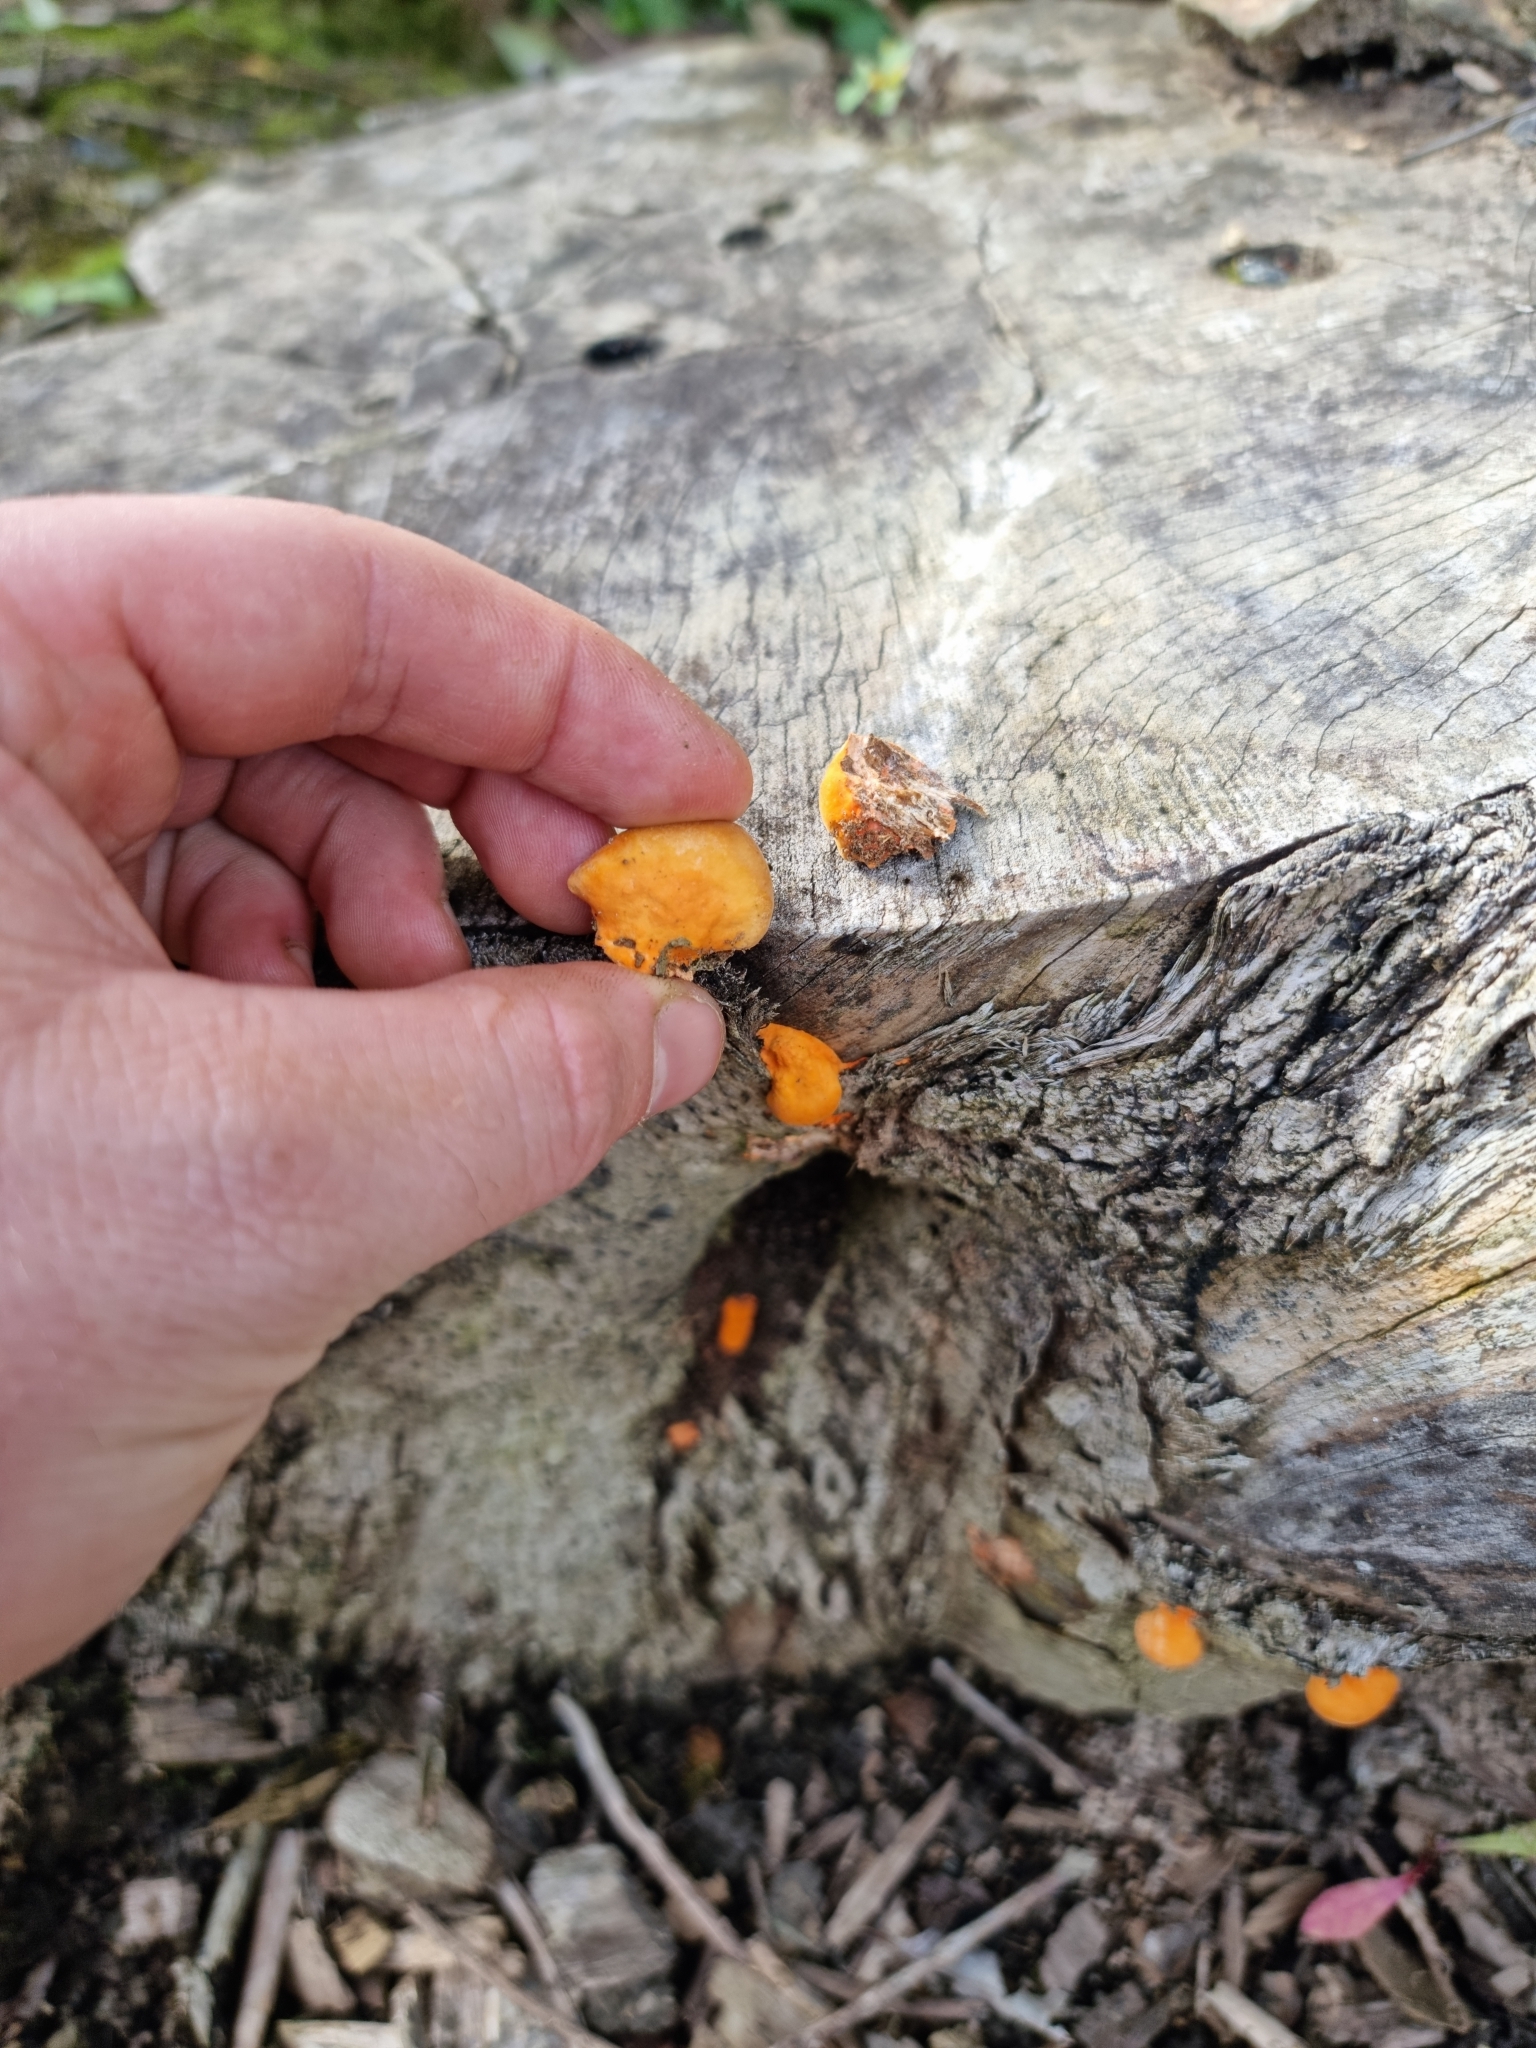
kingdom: Fungi
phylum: Basidiomycota
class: Agaricomycetes
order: Polyporales
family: Polyporaceae
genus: Trametes
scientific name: Trametes coccinea
